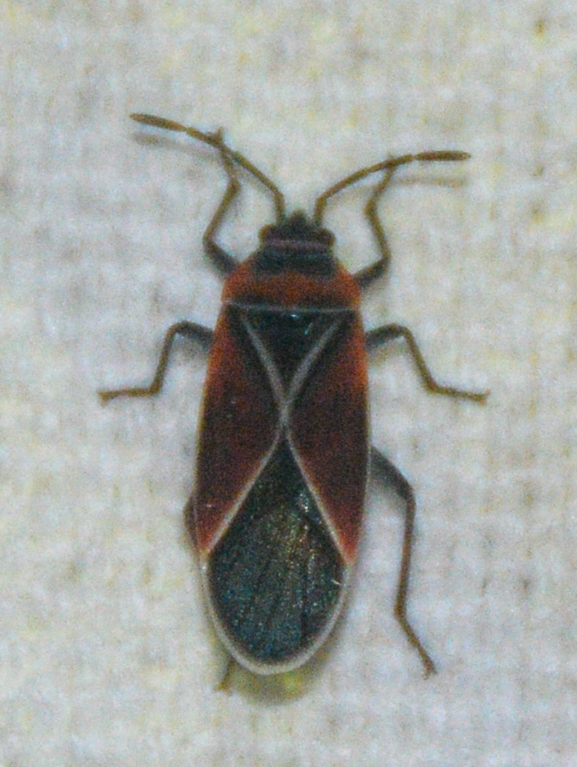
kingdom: Animalia
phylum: Arthropoda
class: Insecta
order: Hemiptera
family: Lygaeidae
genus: Neacoryphus
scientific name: Neacoryphus bicrucis
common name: Lygaeid bug
